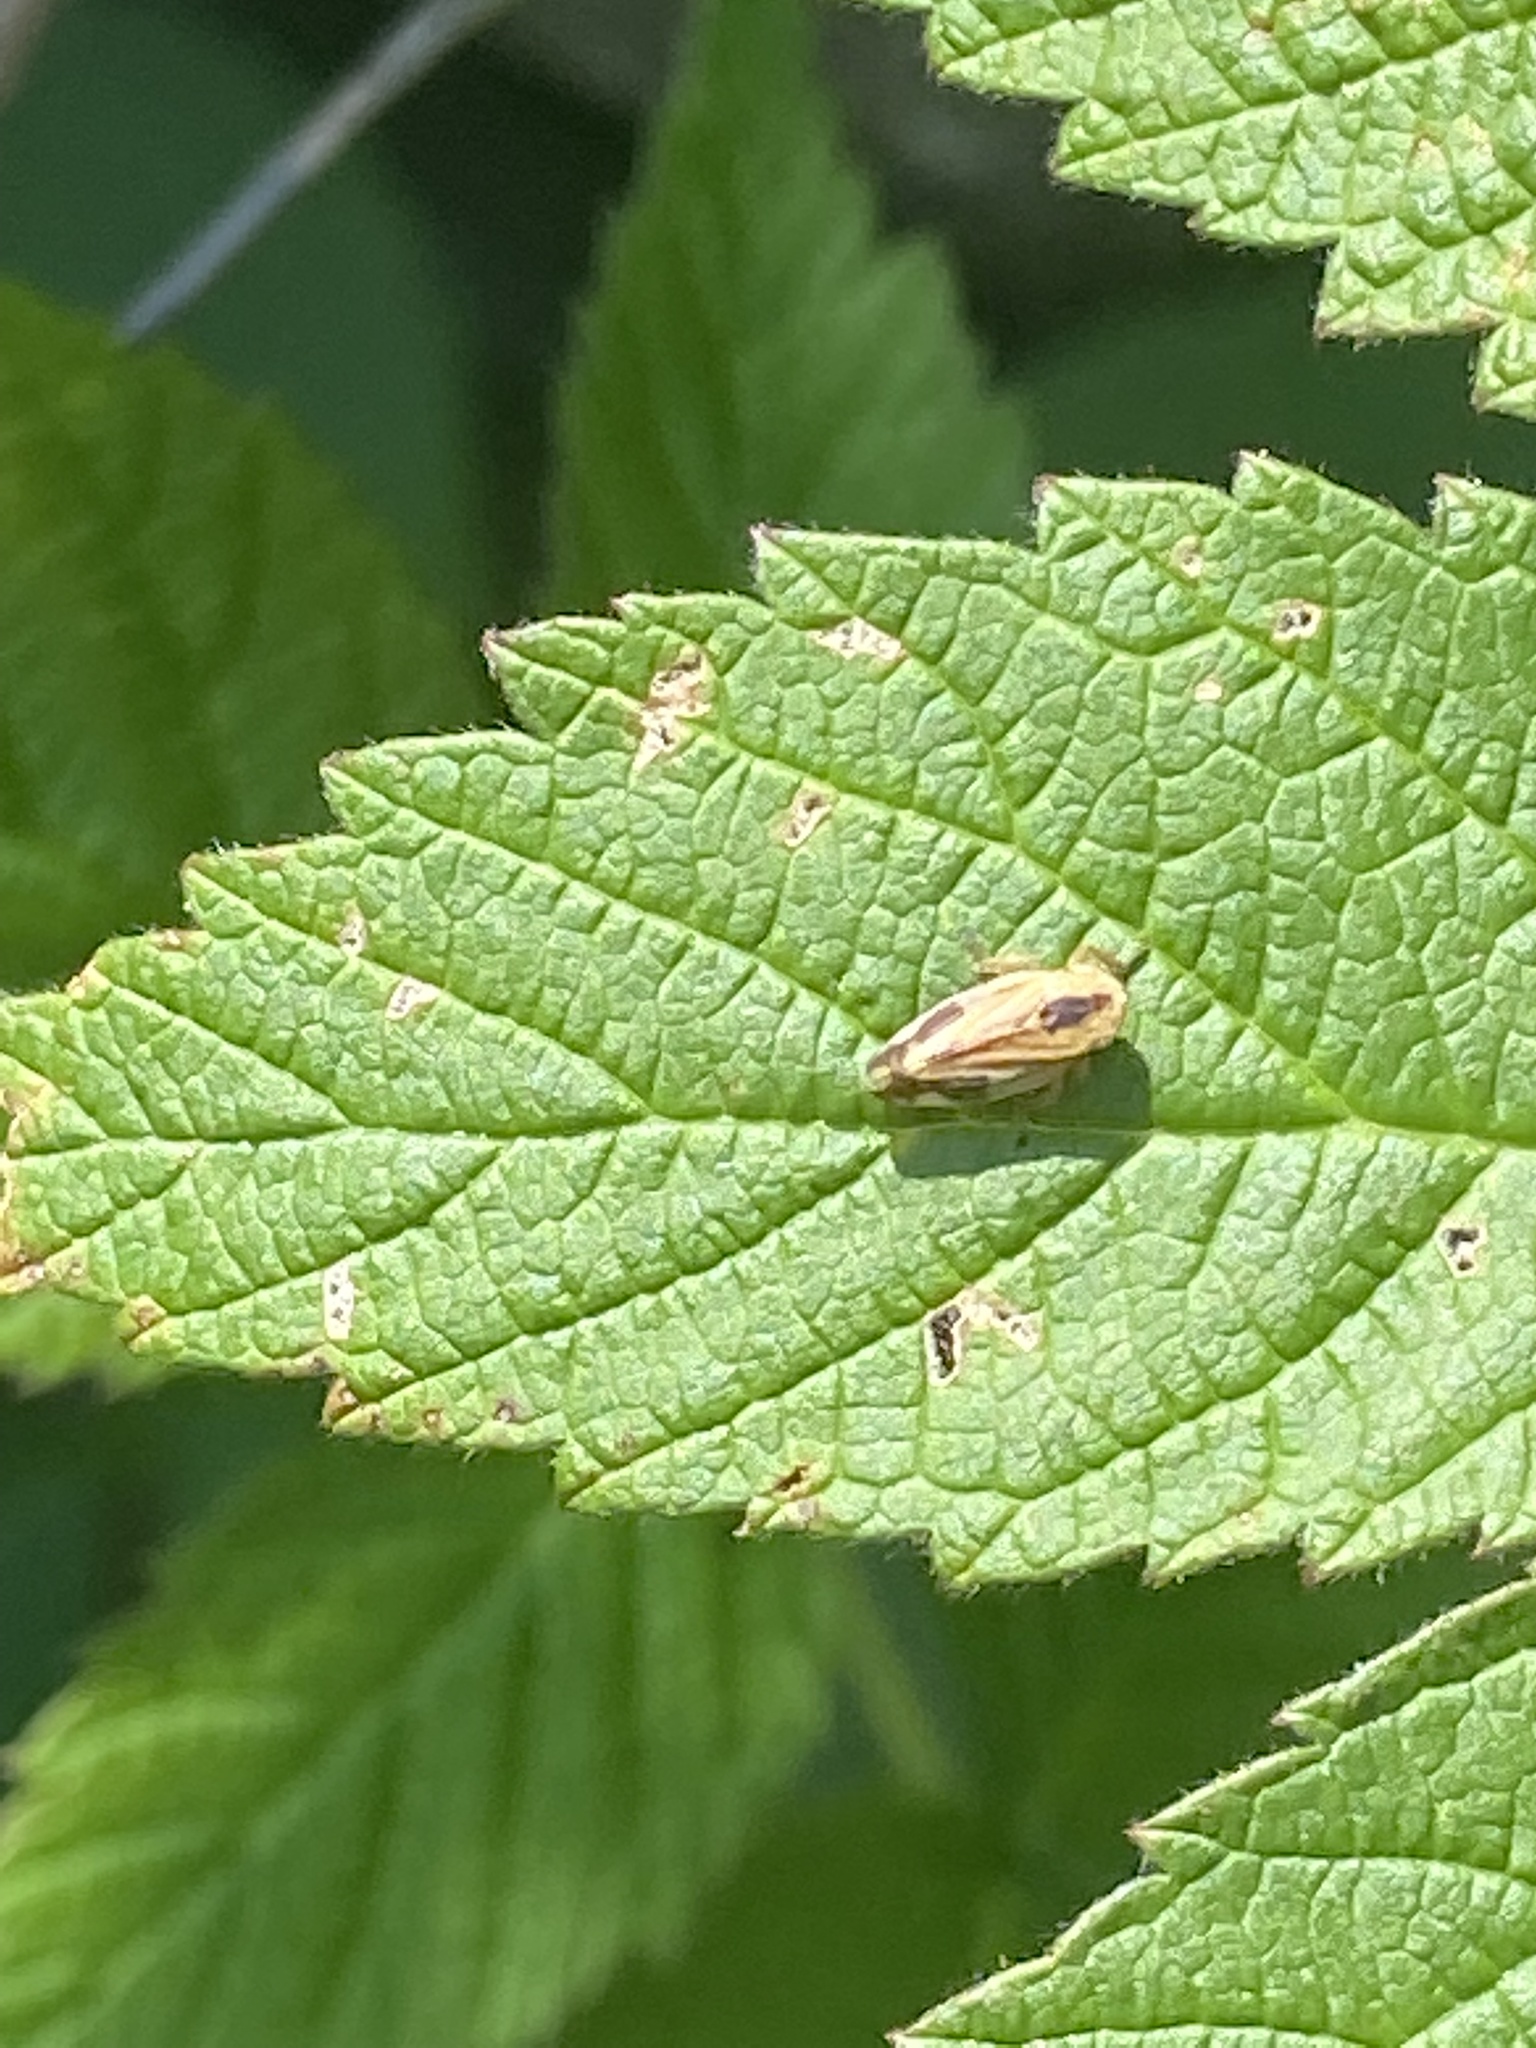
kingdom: Animalia
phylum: Arthropoda
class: Insecta
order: Hemiptera
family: Aphrophoridae
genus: Philaenus
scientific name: Philaenus spumarius
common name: Meadow spittlebug
